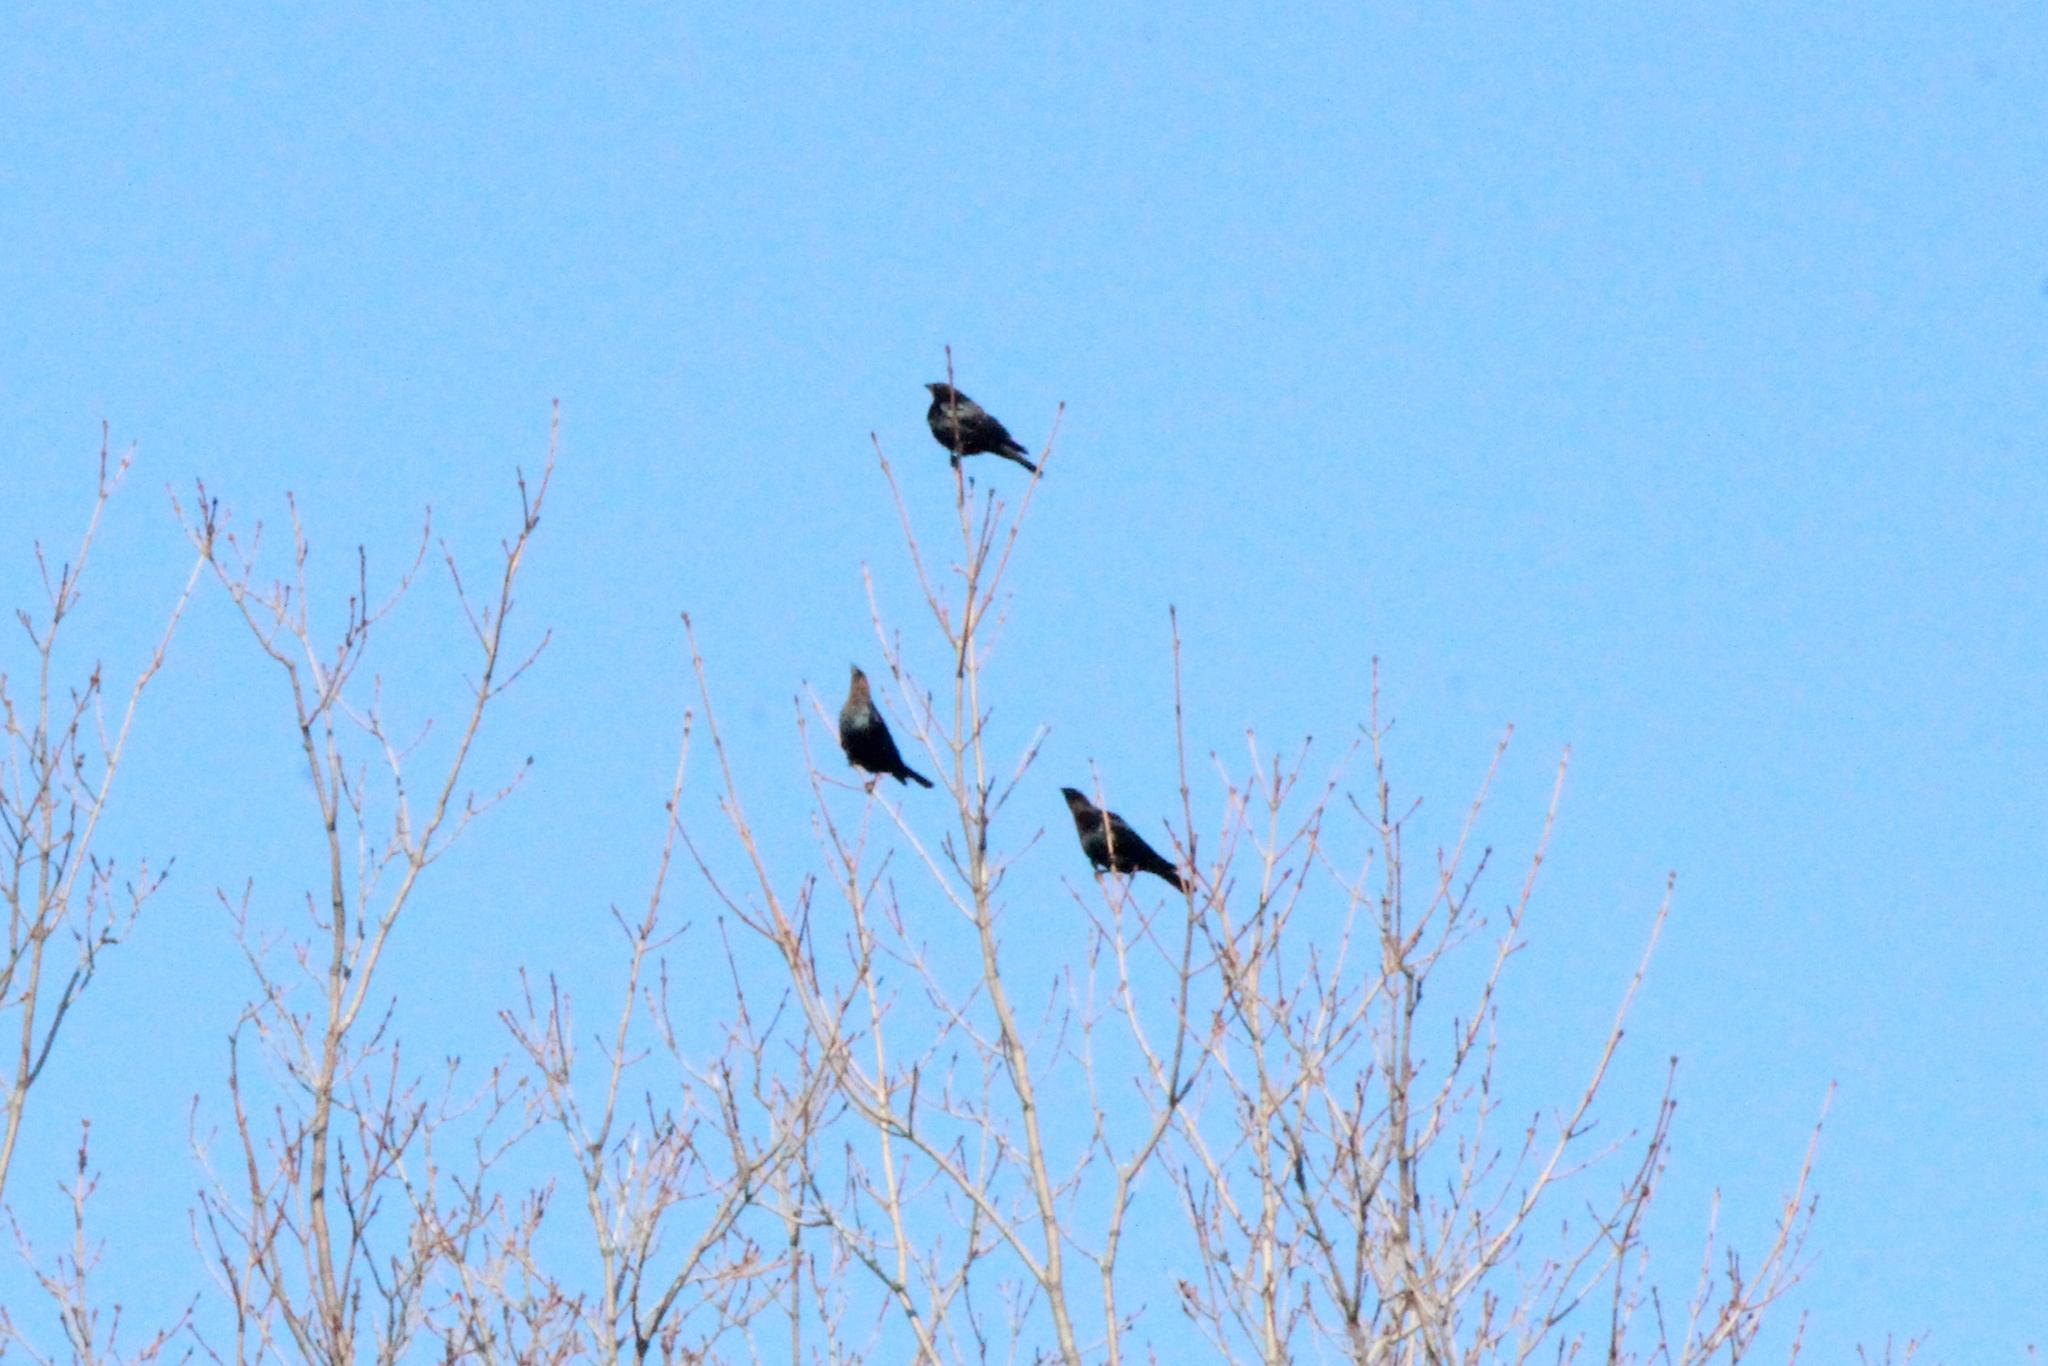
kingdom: Animalia
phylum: Chordata
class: Aves
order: Passeriformes
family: Icteridae
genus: Molothrus
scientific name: Molothrus ater
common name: Brown-headed cowbird
